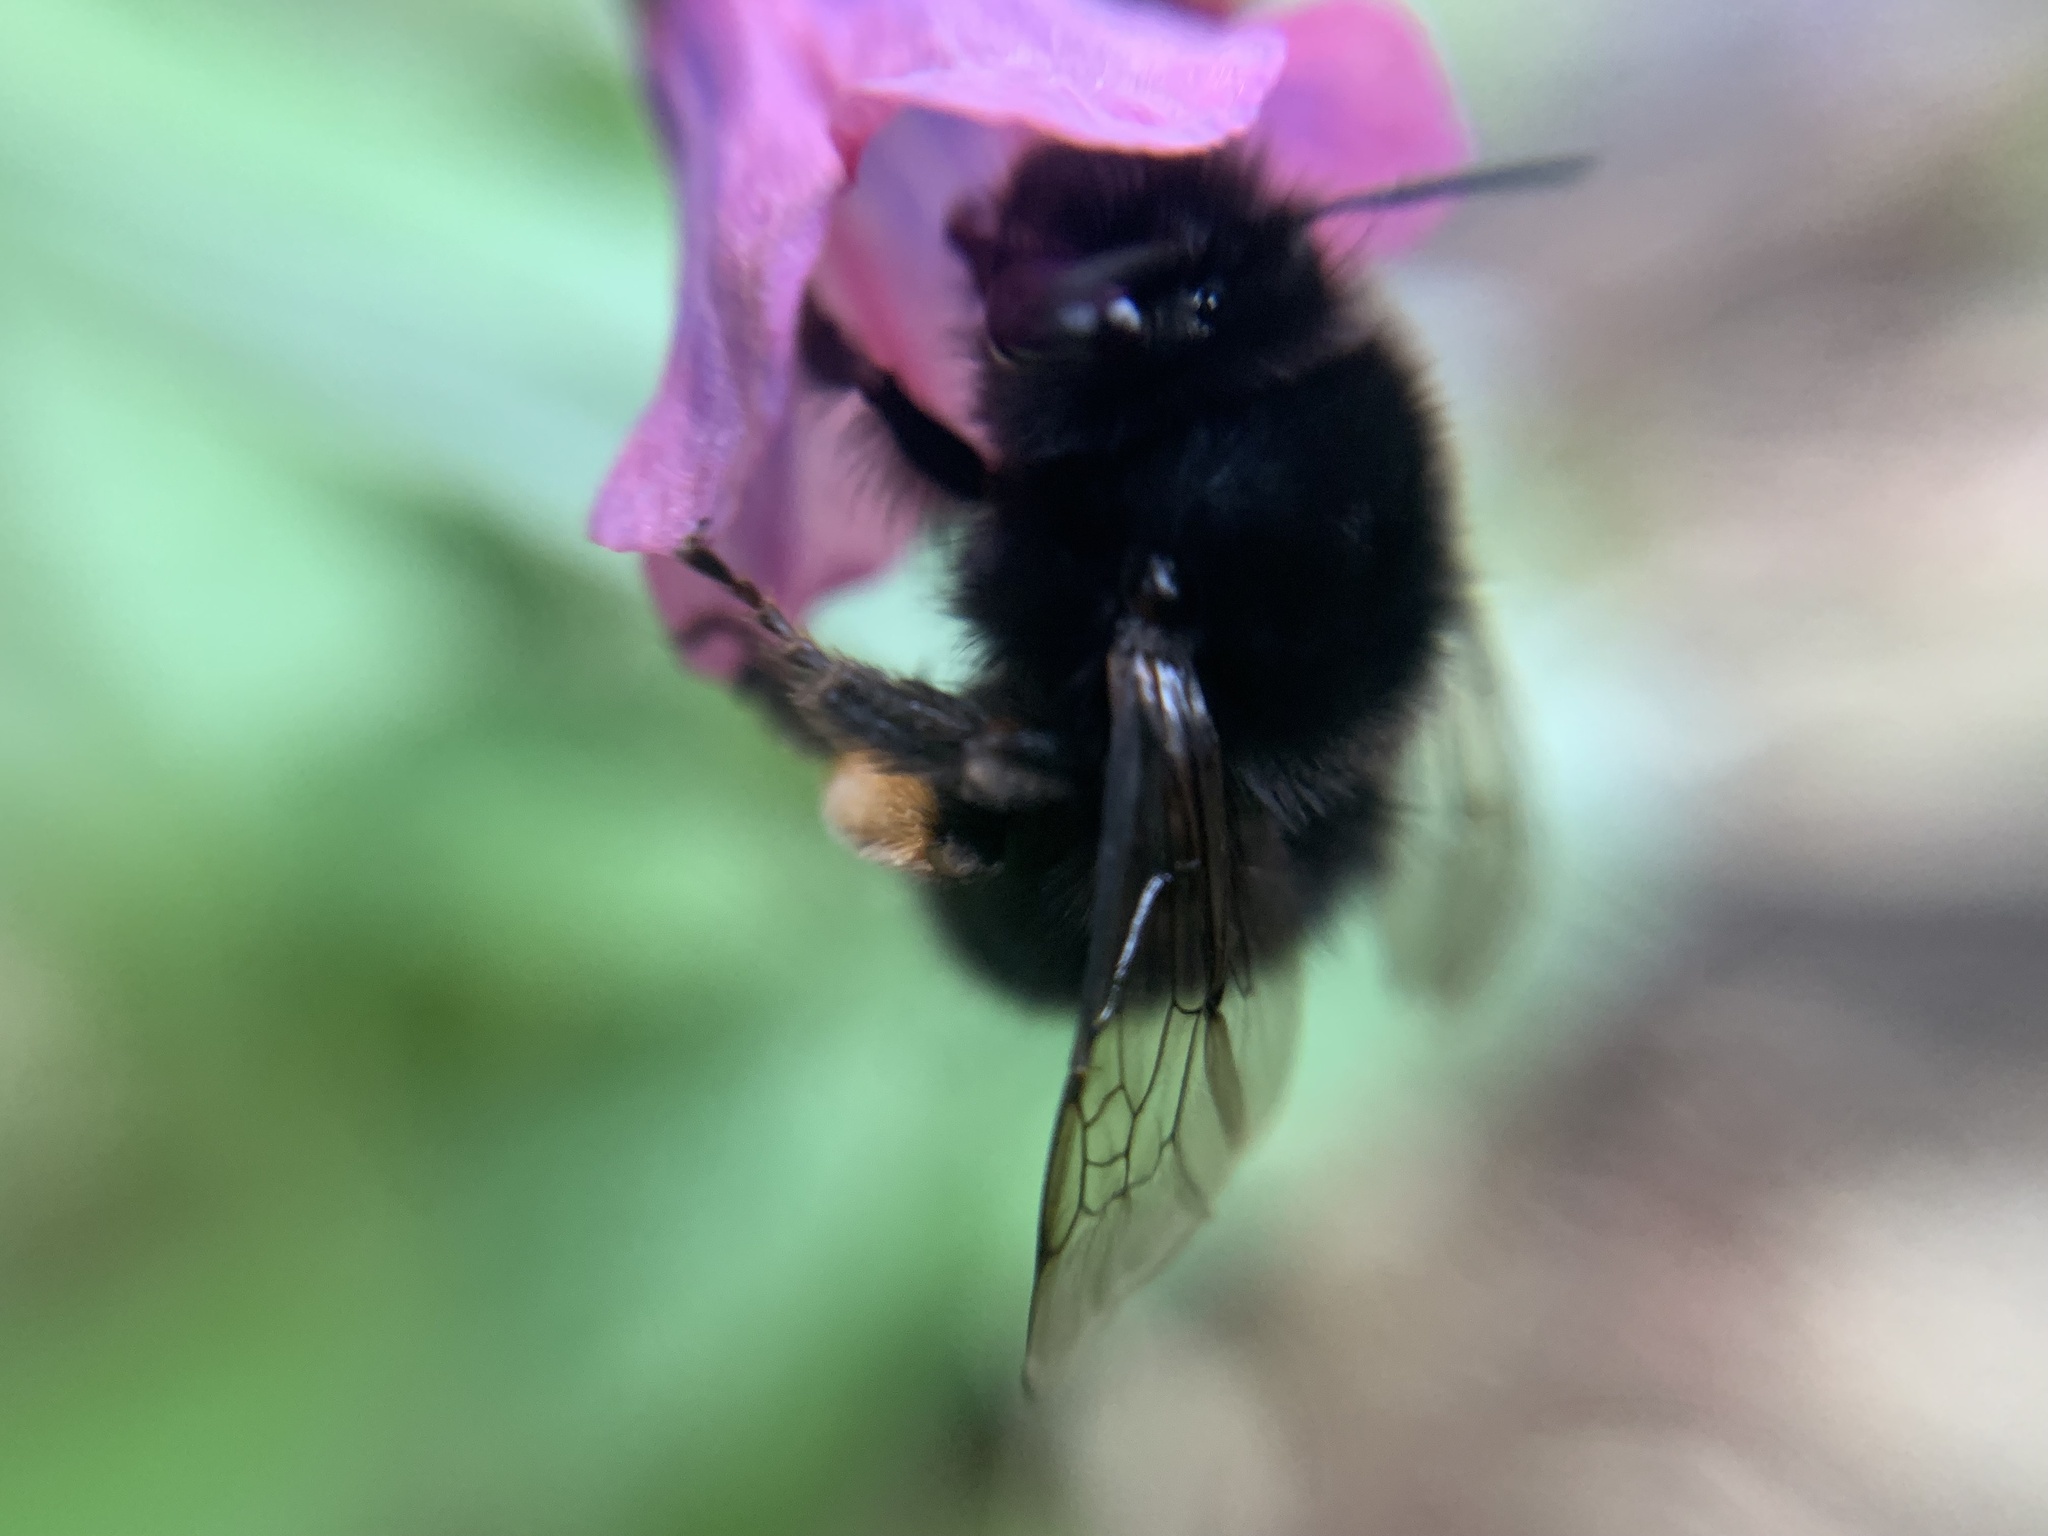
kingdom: Animalia
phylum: Arthropoda
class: Insecta
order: Hymenoptera
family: Apidae
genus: Anthophora
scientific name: Anthophora plumipes
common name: Hairy-footed flower bee
